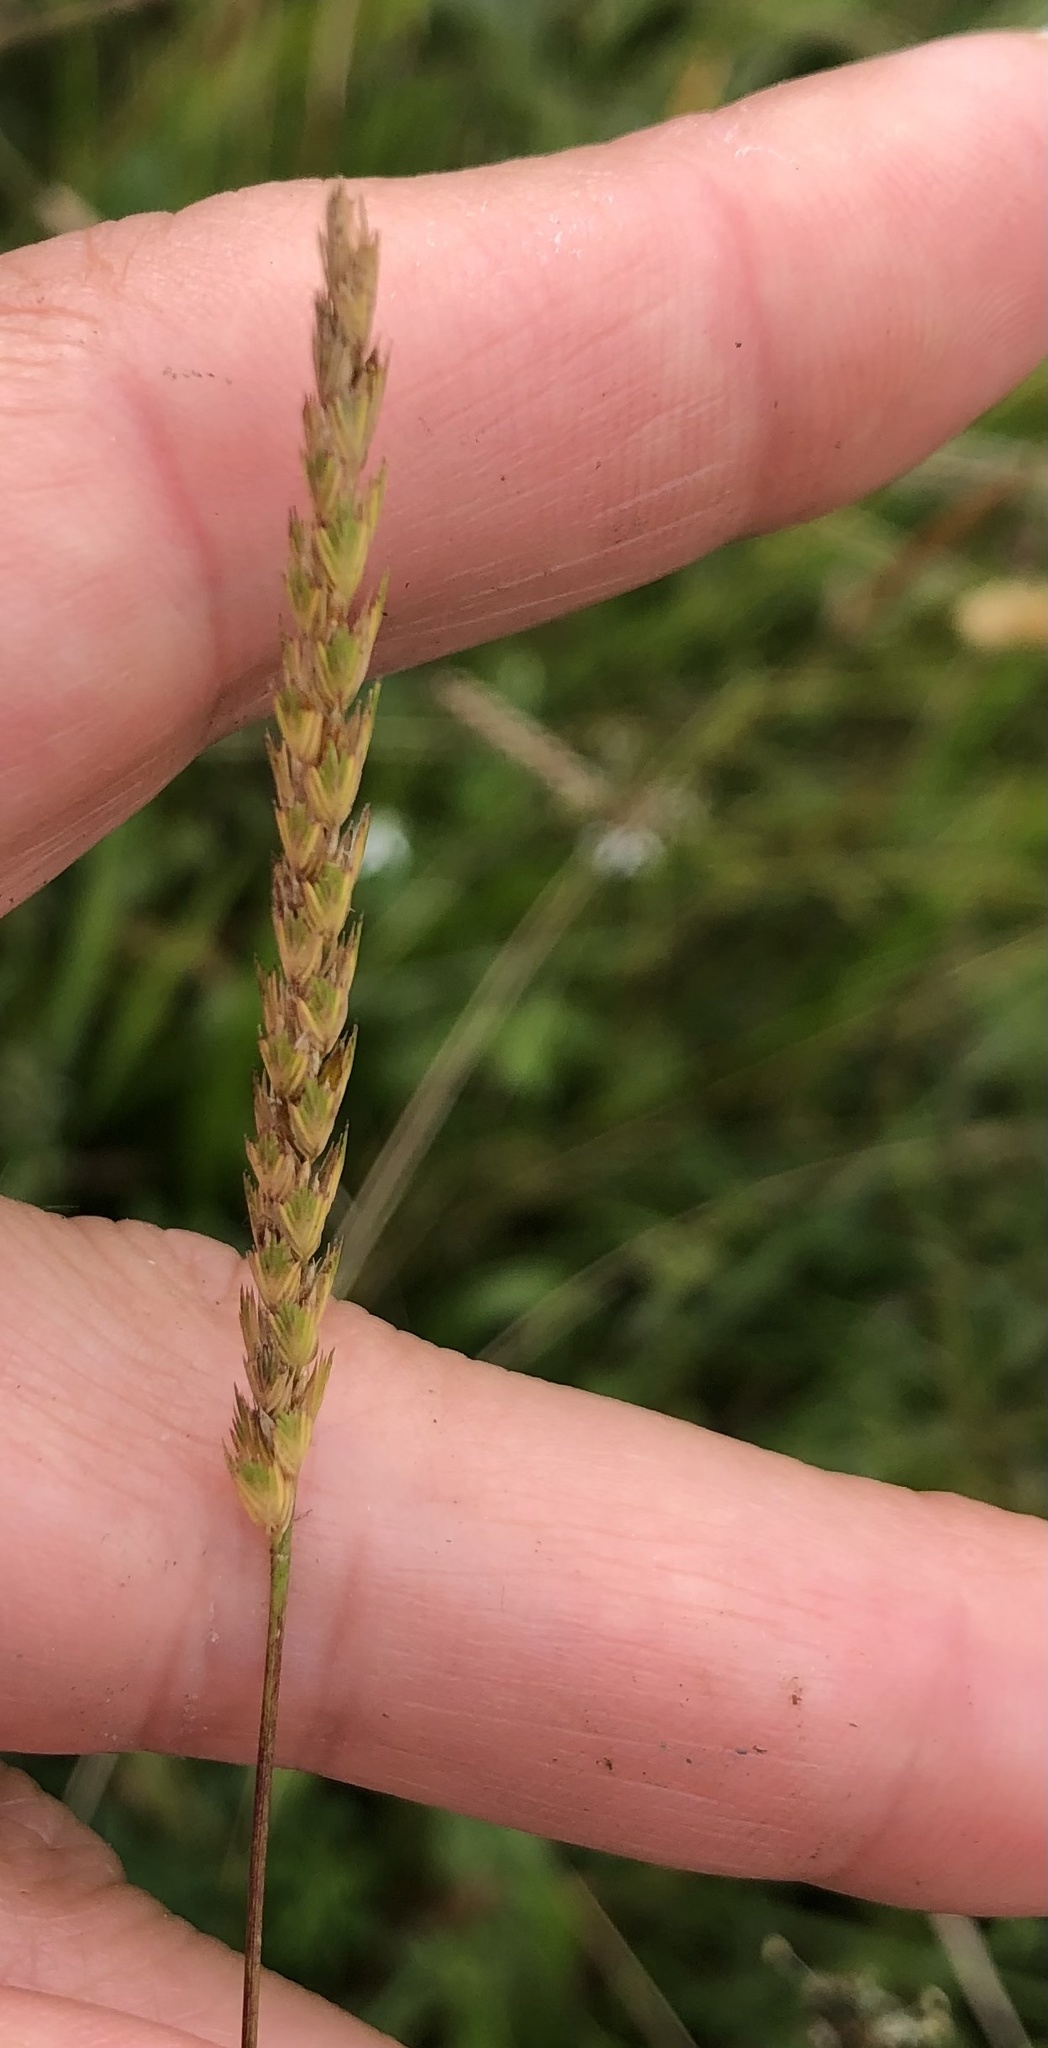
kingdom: Plantae
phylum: Tracheophyta
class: Liliopsida
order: Poales
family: Poaceae
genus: Cynosurus
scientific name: Cynosurus cristatus
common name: Crested dog's-tail
